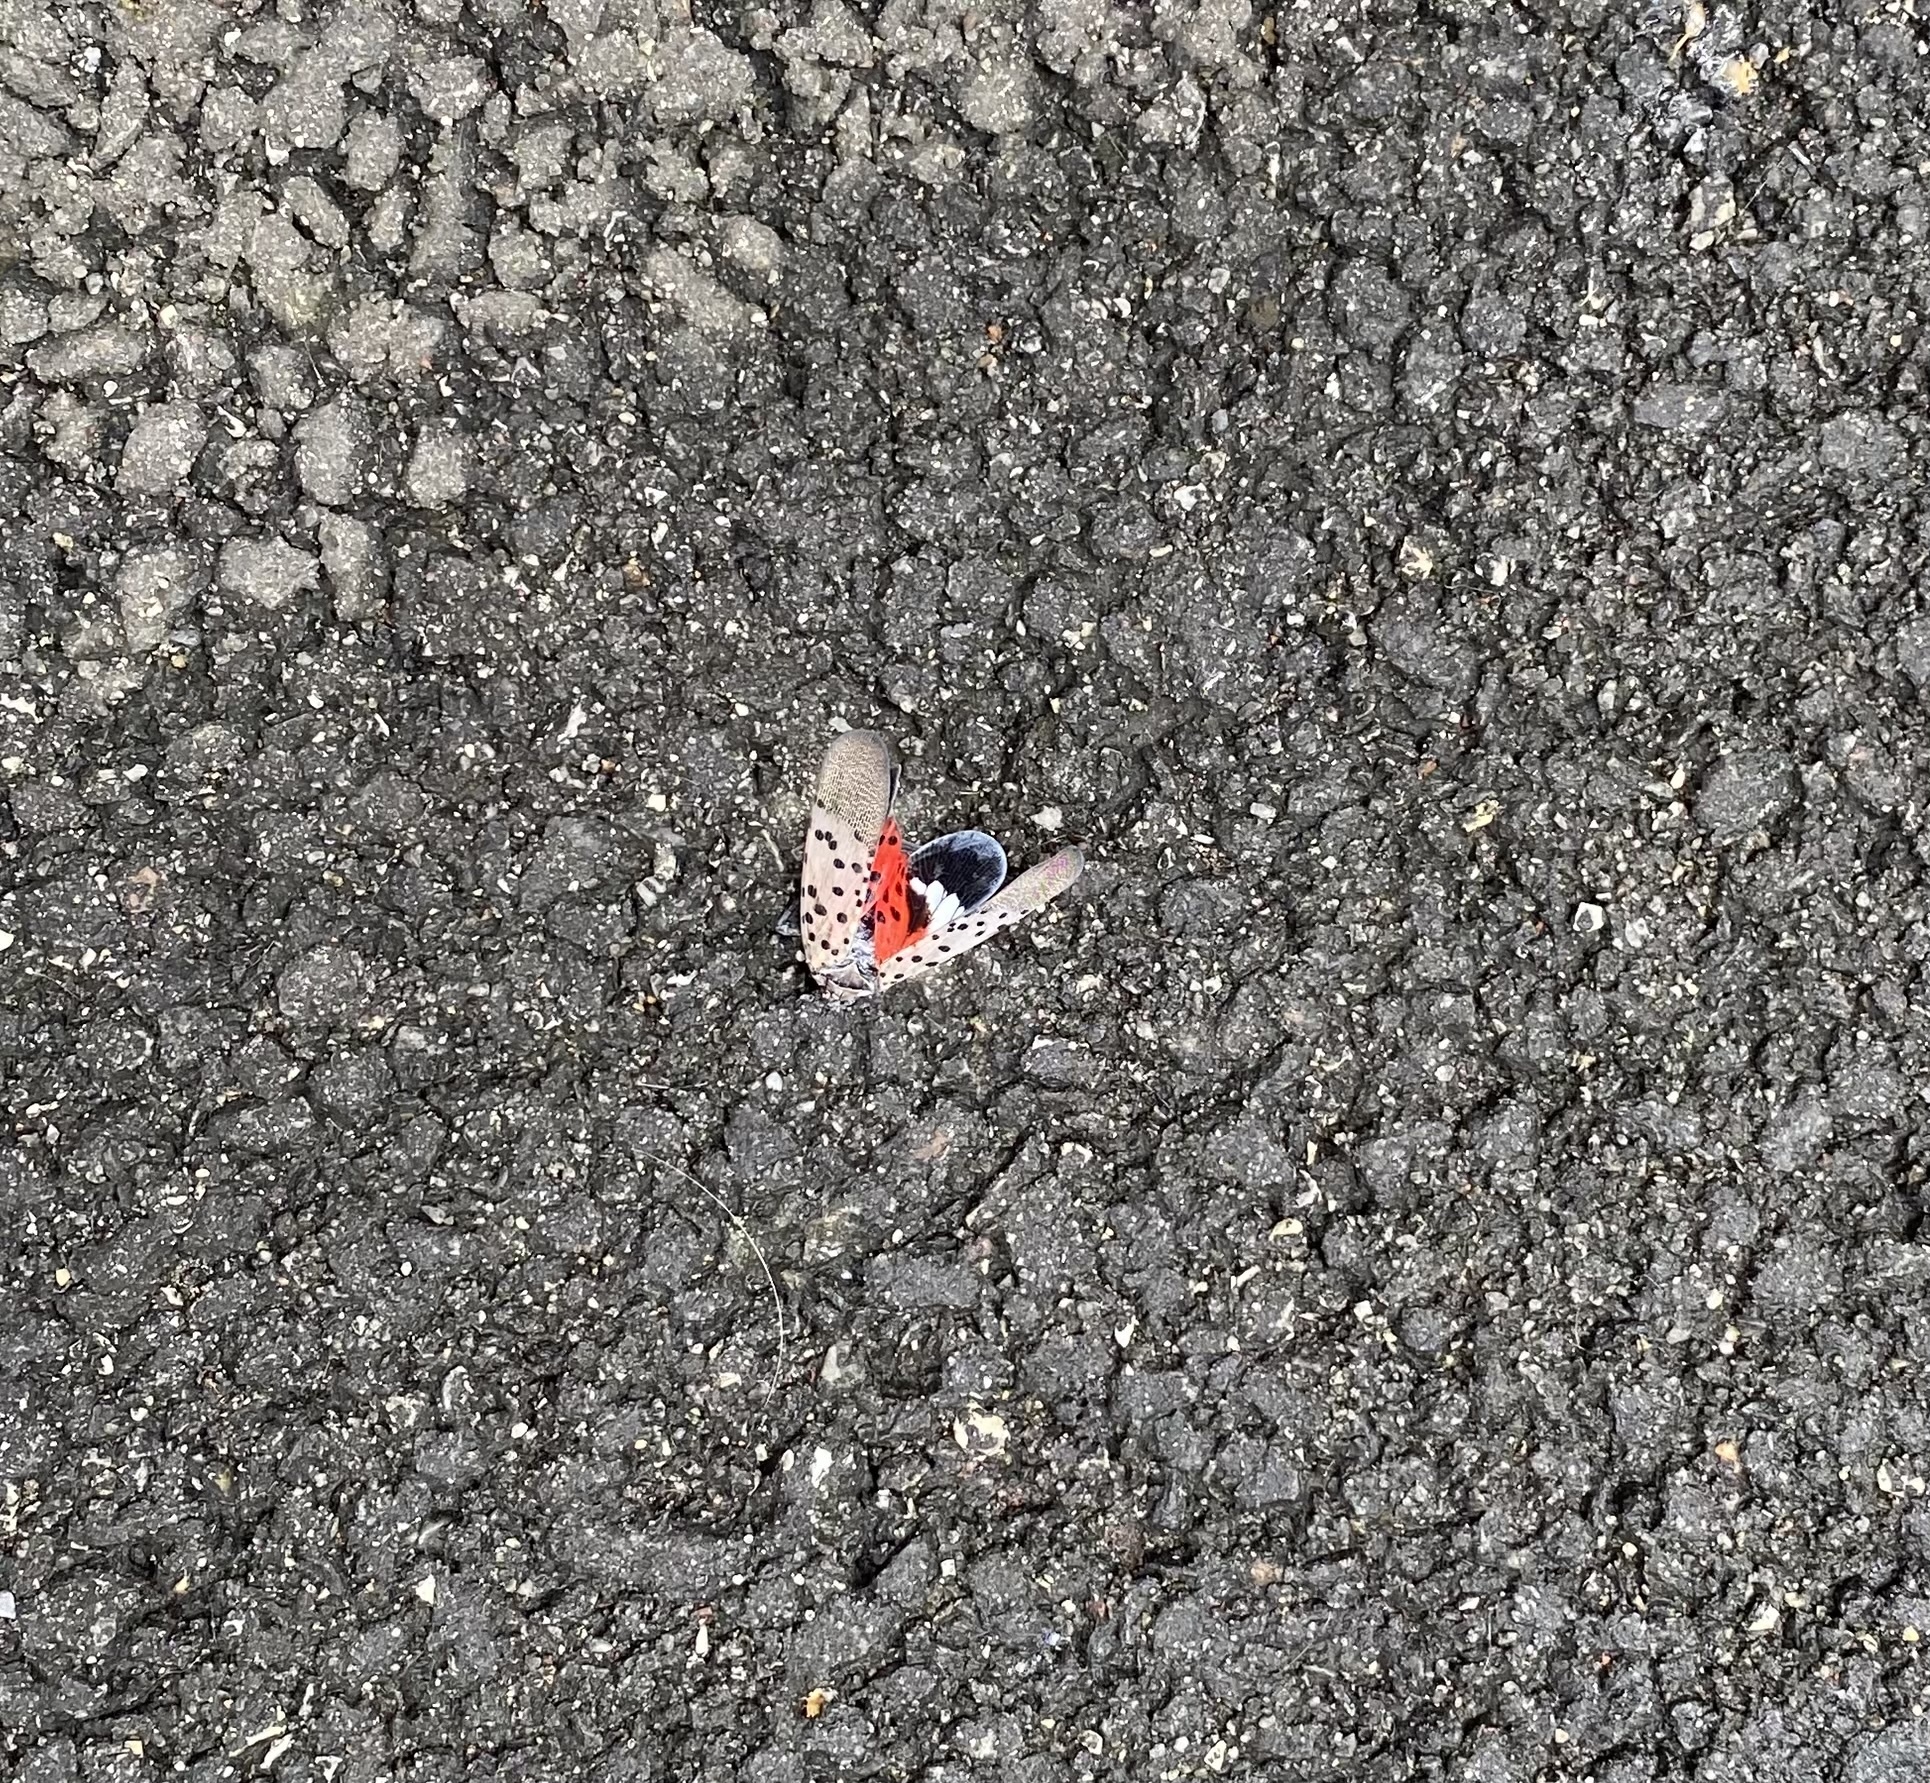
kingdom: Animalia
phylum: Arthropoda
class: Insecta
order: Hemiptera
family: Fulgoridae
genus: Lycorma
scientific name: Lycorma delicatula
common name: Spotted lanternfly
